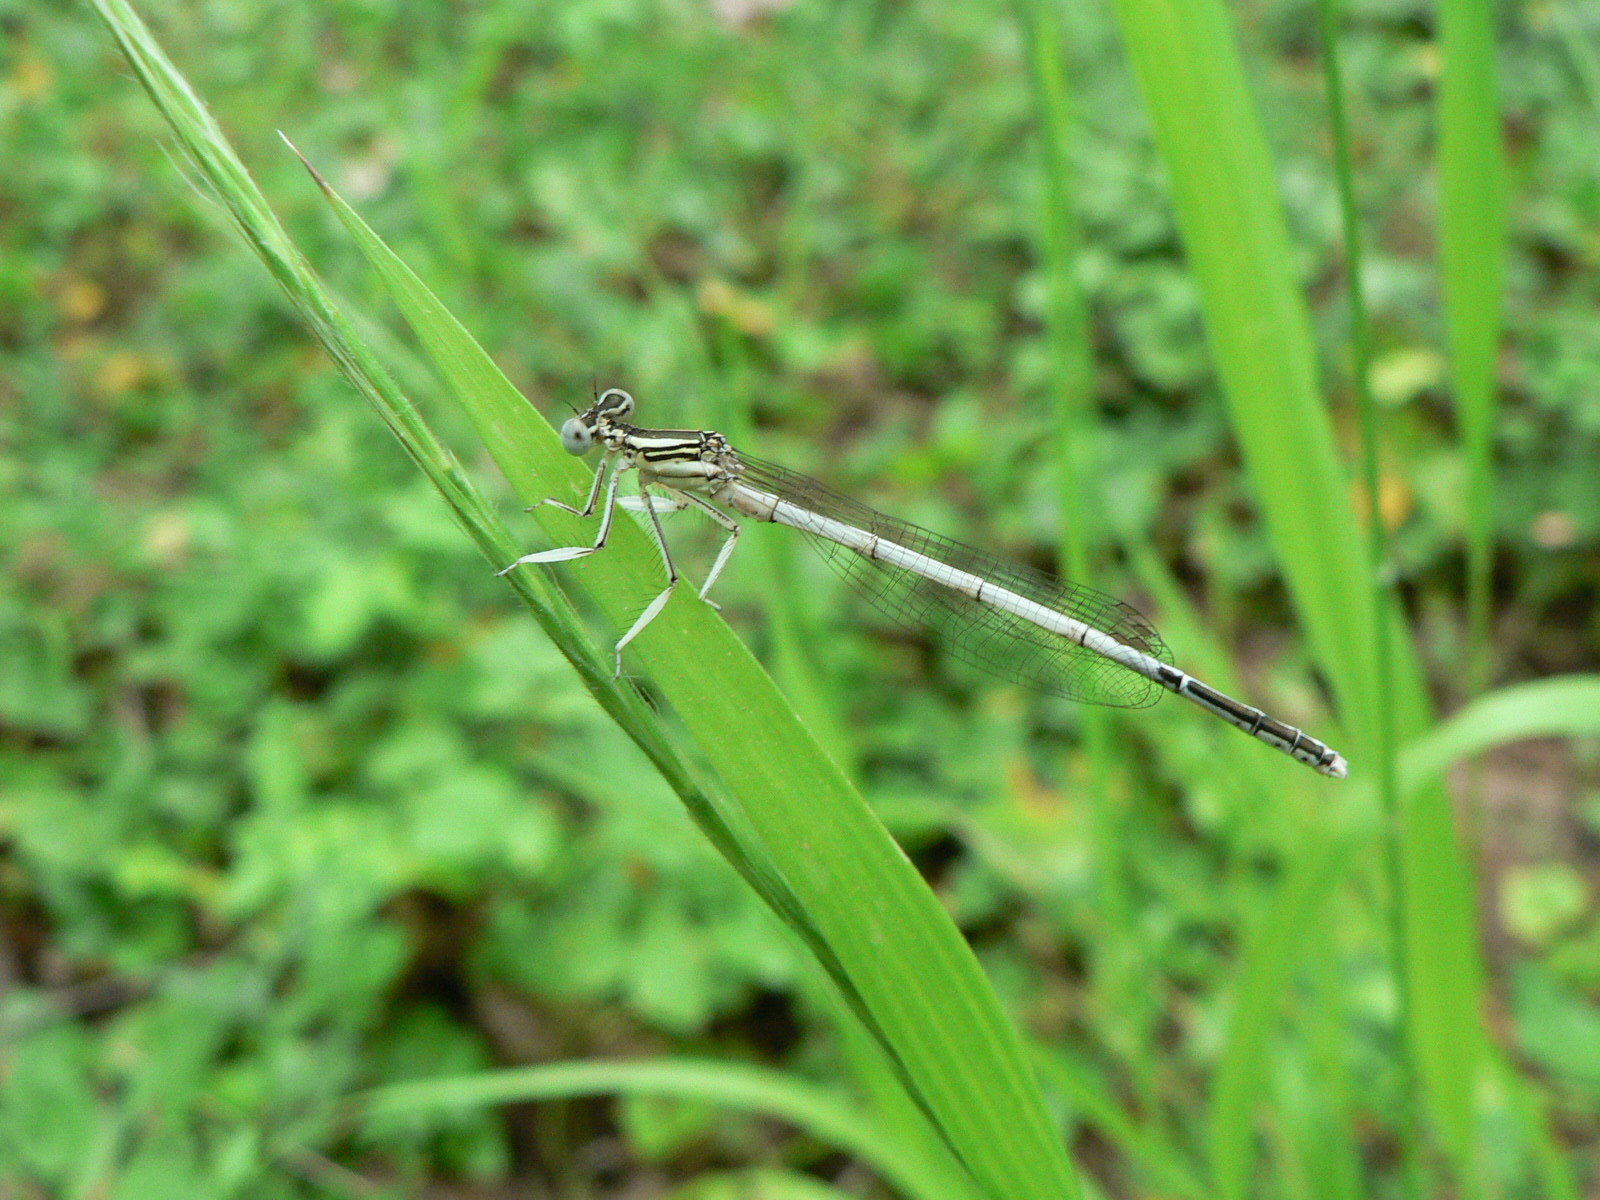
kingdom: Animalia
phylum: Arthropoda
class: Insecta
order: Odonata
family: Platycnemididae
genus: Platycnemis
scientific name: Platycnemis latipes
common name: White featherleg
